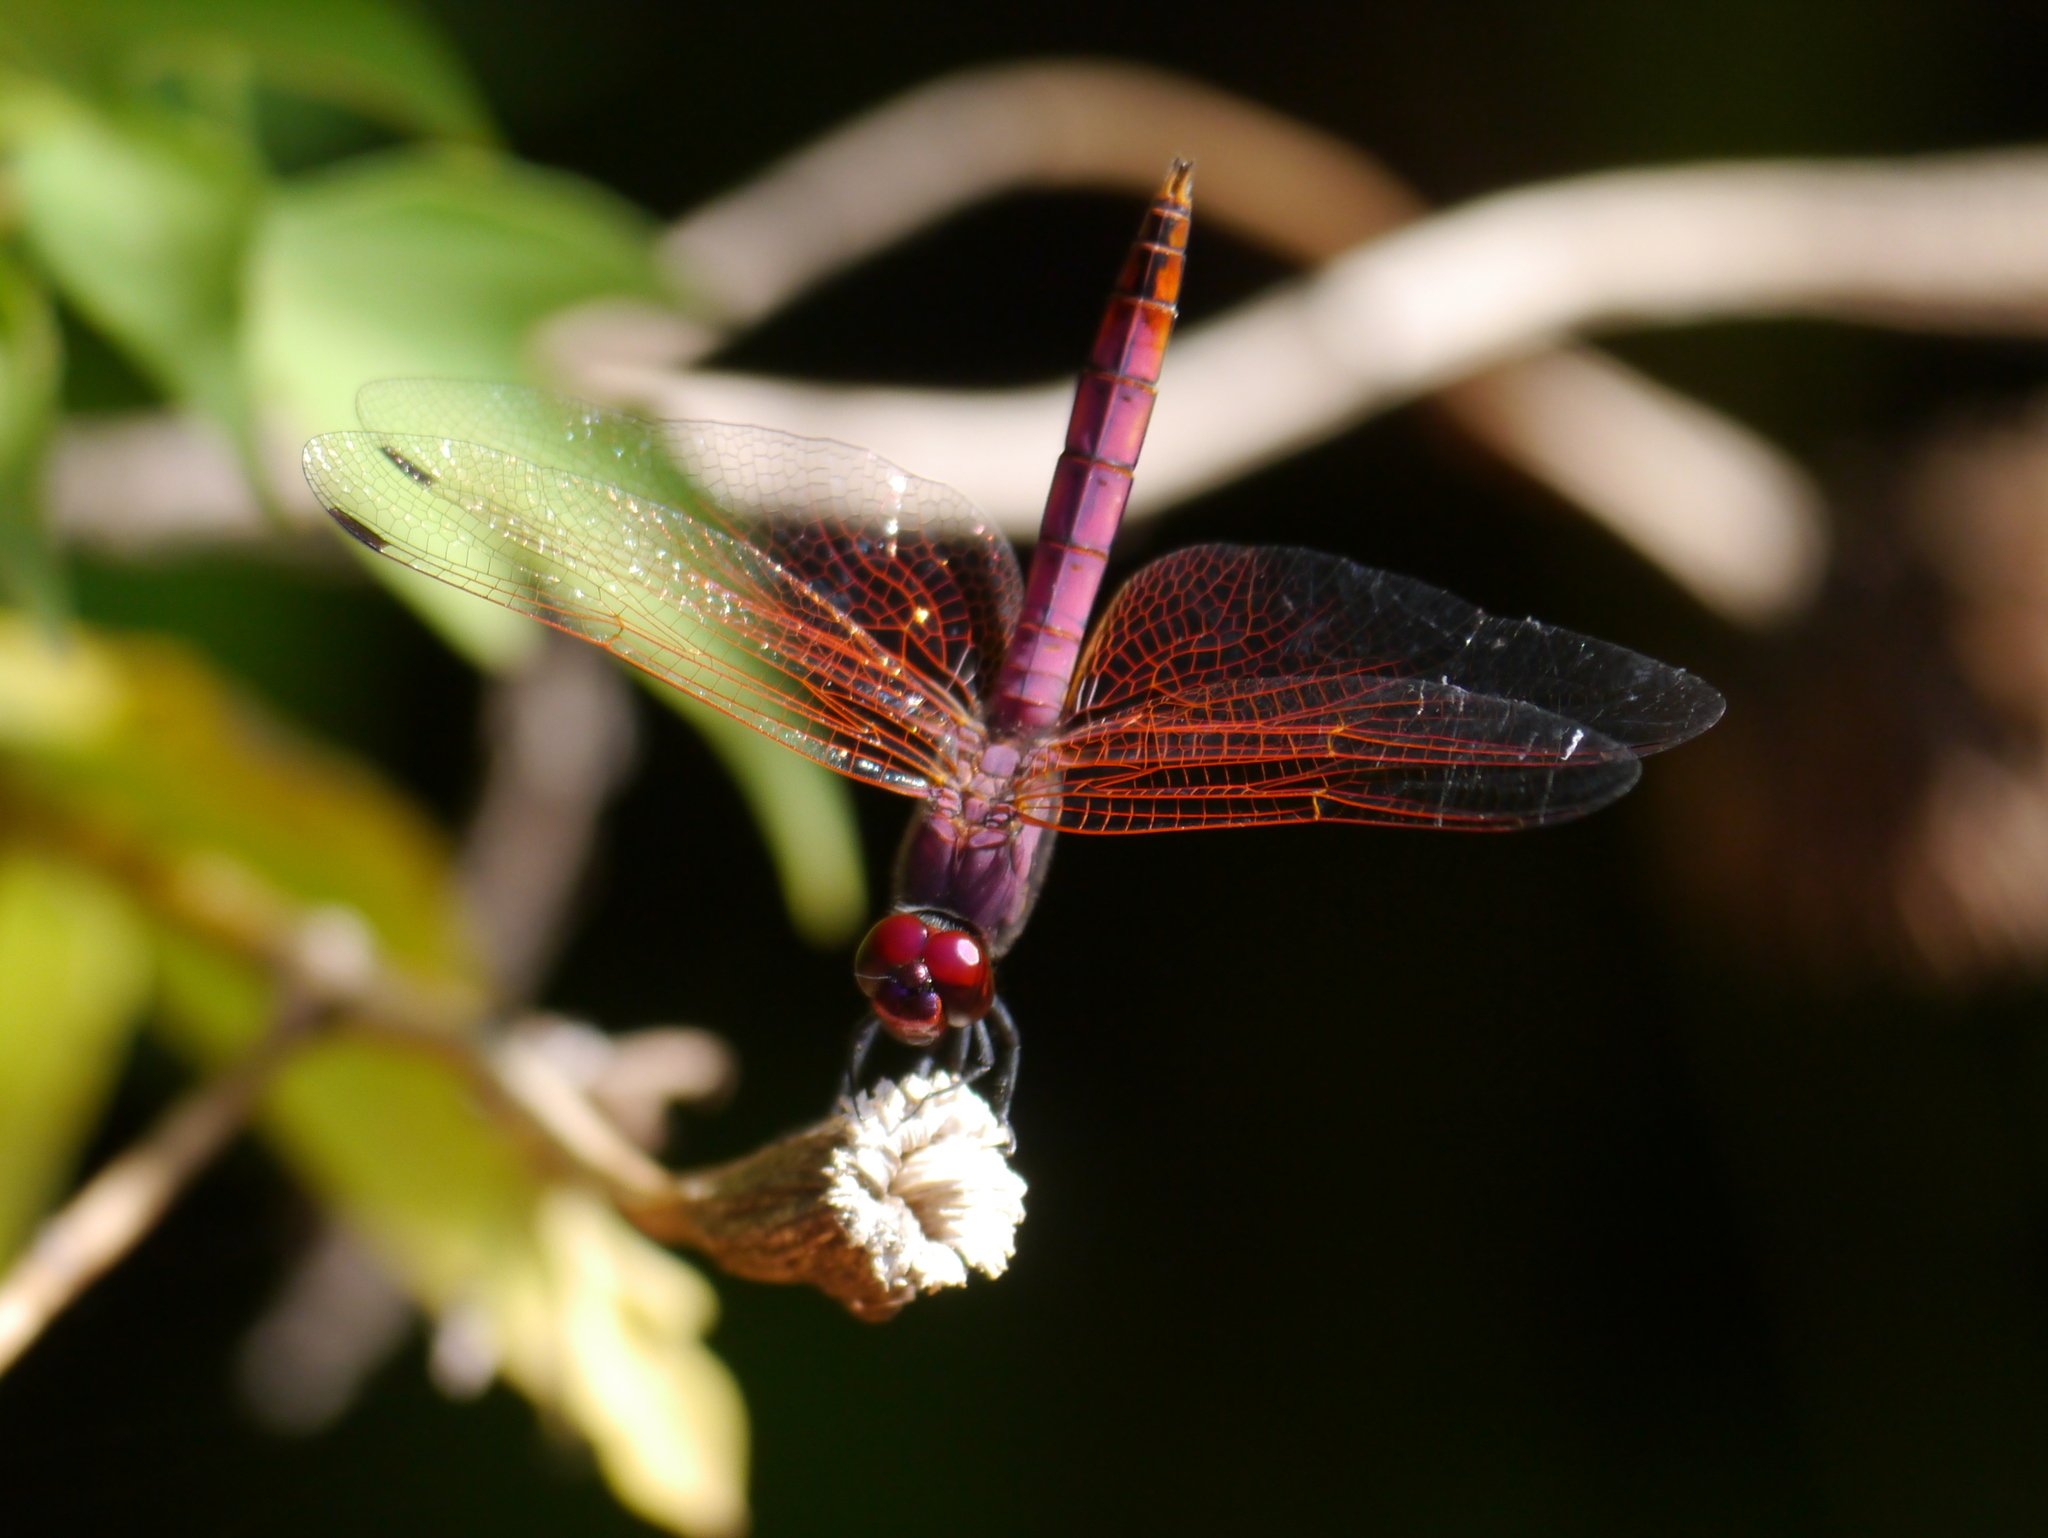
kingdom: Animalia
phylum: Arthropoda
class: Insecta
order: Odonata
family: Libellulidae
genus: Trithemis
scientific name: Trithemis annulata
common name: Violet dropwing
